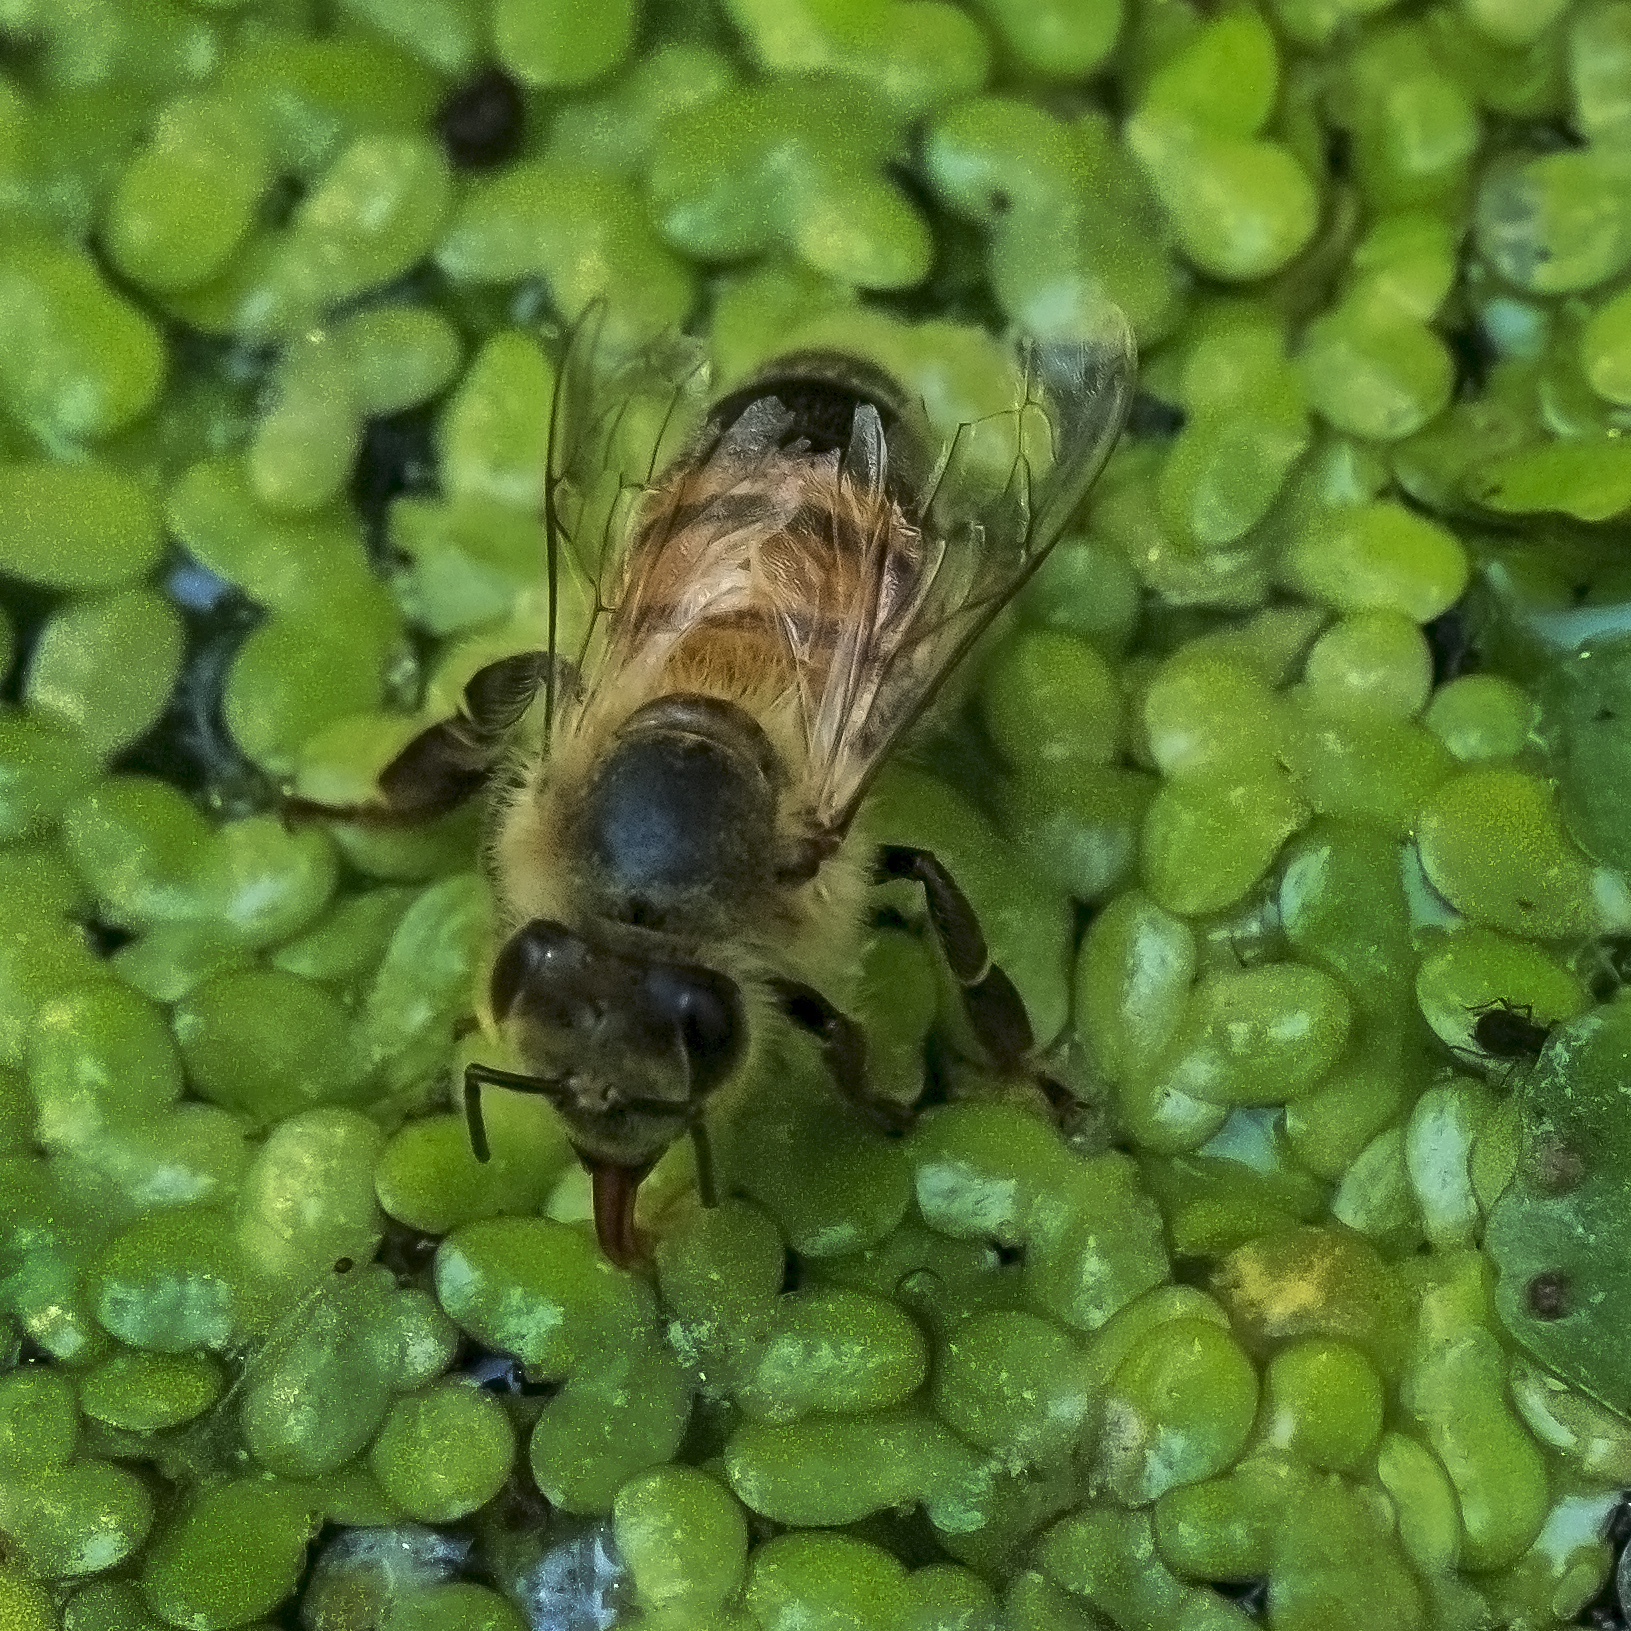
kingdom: Animalia
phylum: Arthropoda
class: Insecta
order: Hymenoptera
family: Apidae
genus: Apis
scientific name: Apis mellifera
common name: Honey bee
